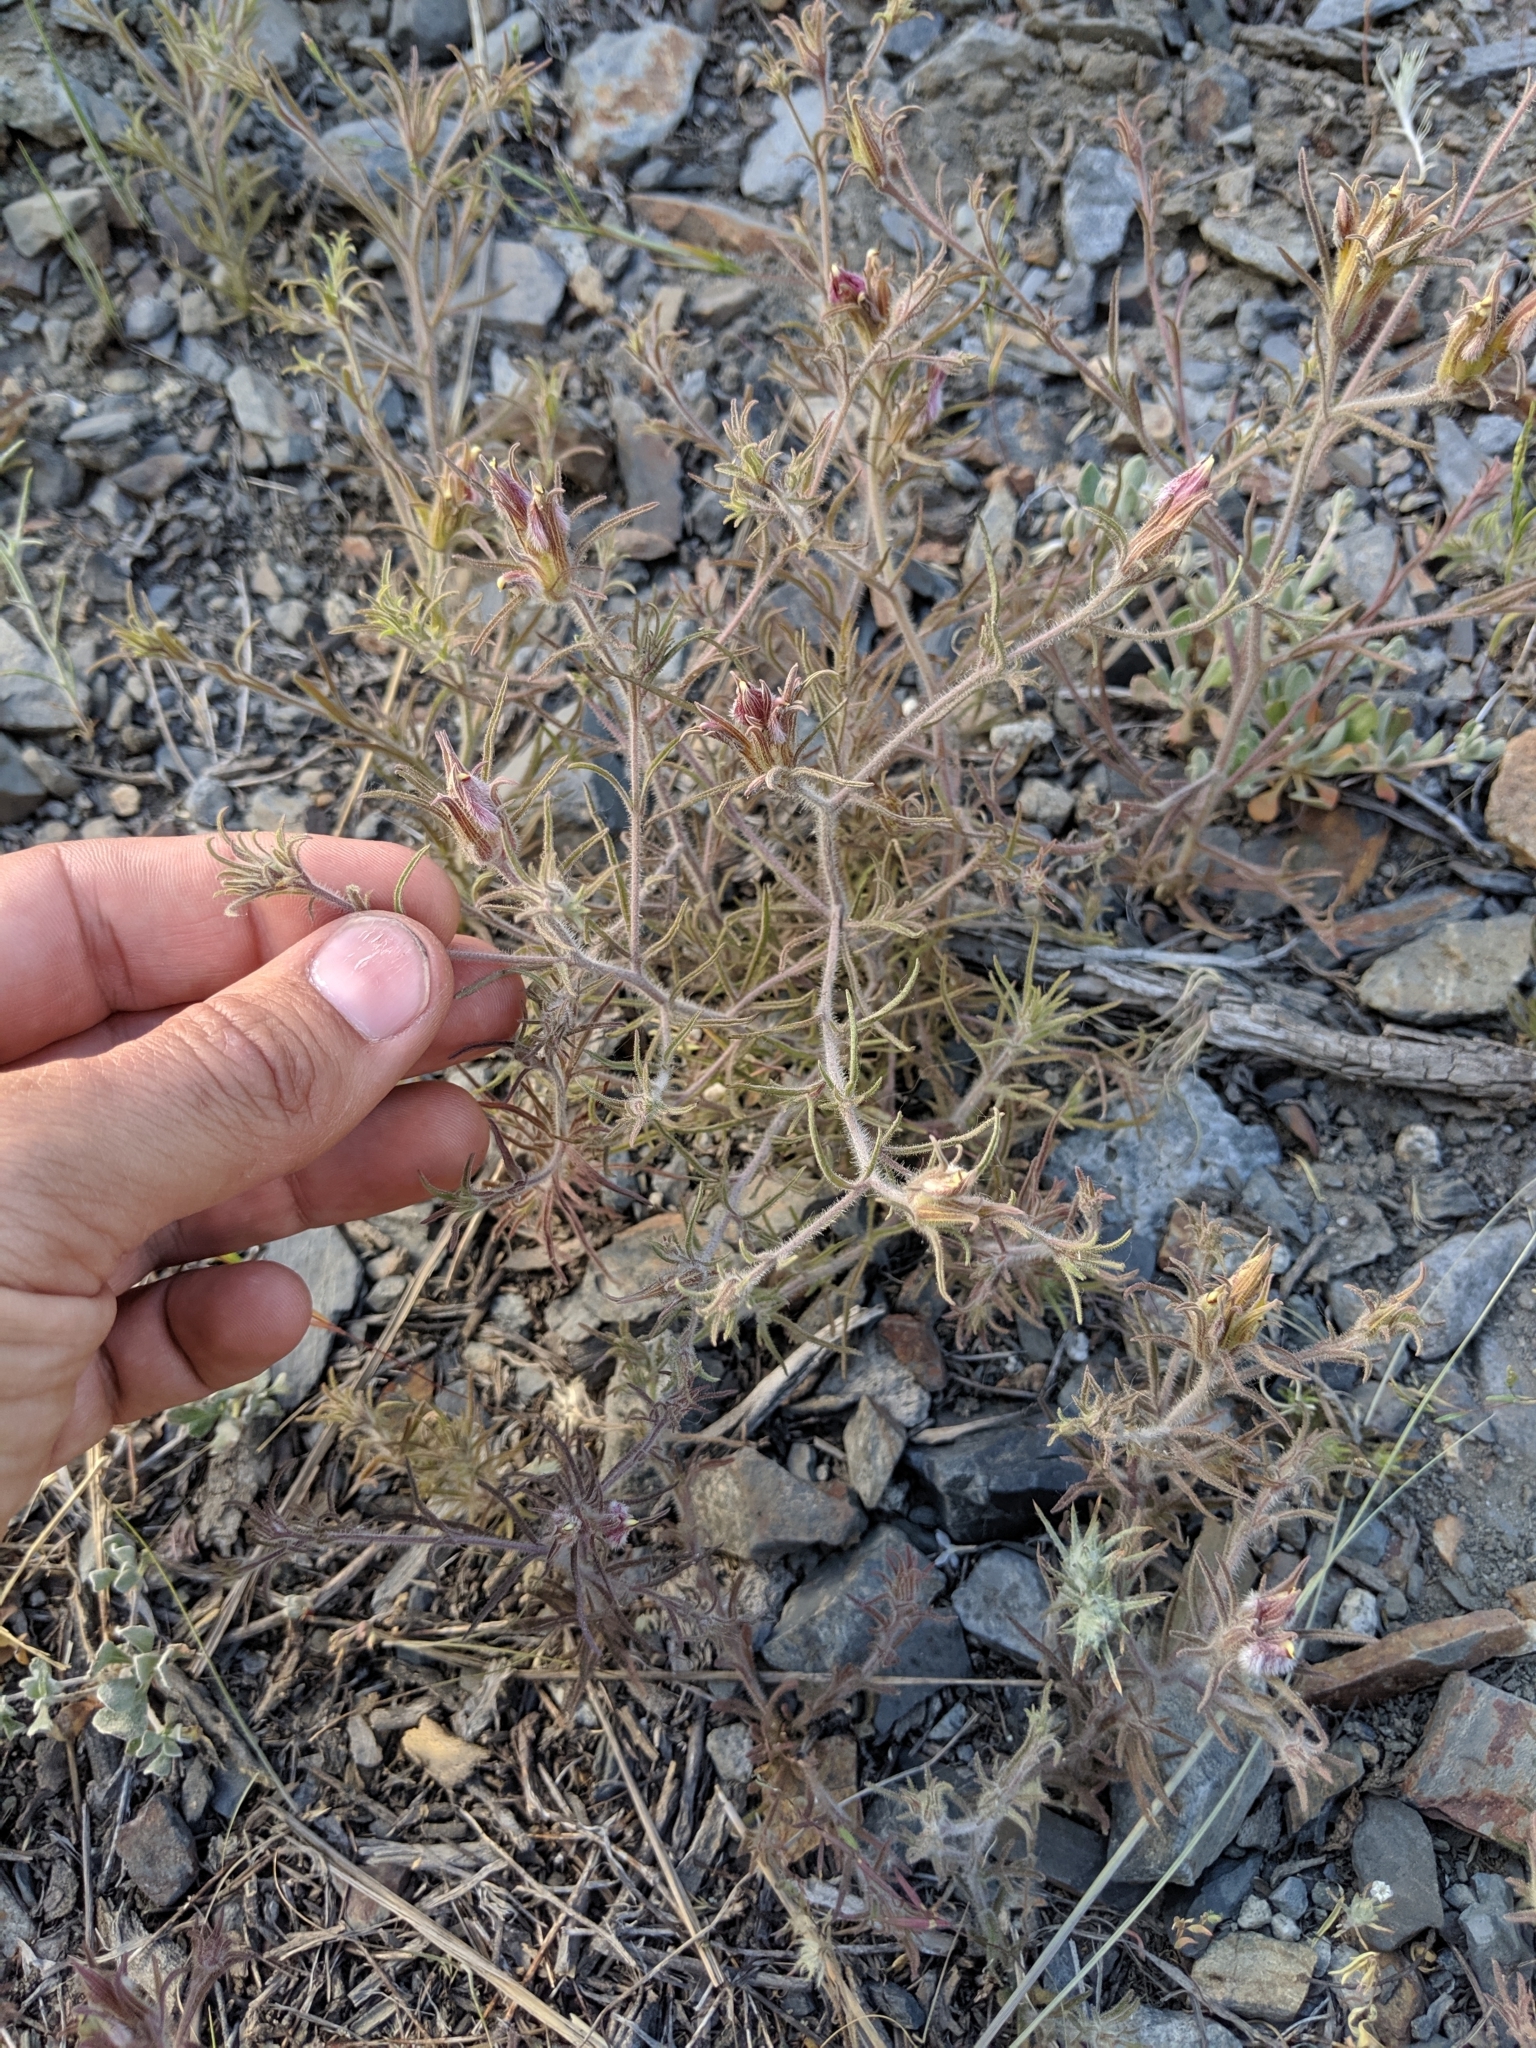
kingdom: Plantae
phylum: Tracheophyta
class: Magnoliopsida
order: Lamiales
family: Orobanchaceae
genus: Cordylanthus
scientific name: Cordylanthus kingii
